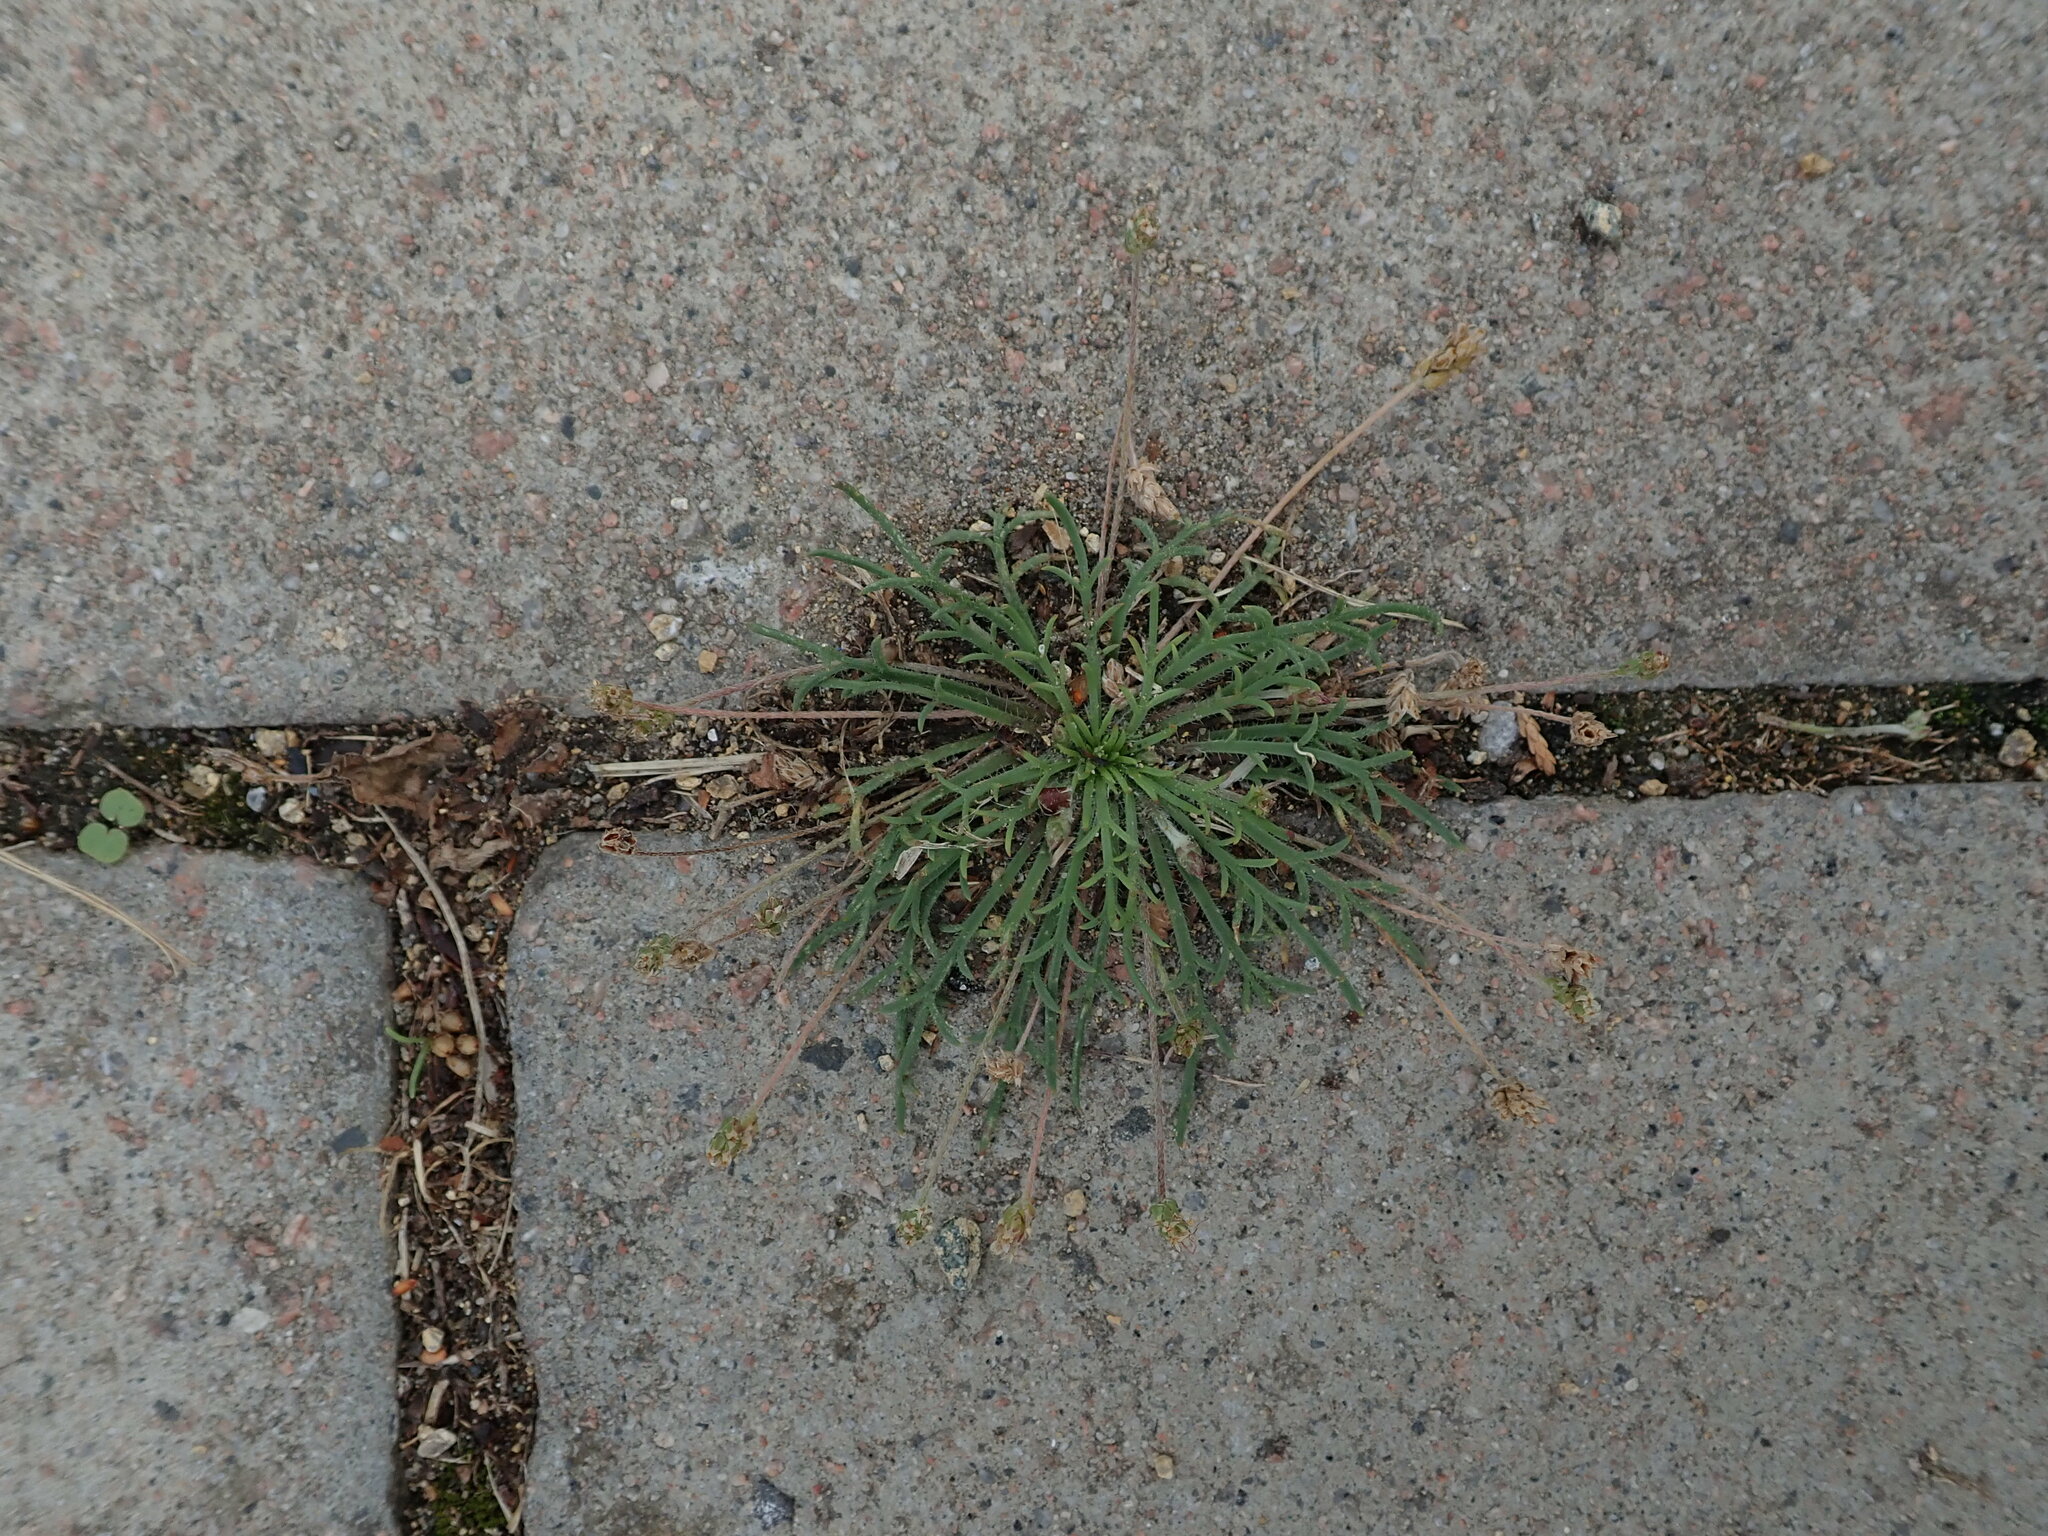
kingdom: Plantae
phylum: Tracheophyta
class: Magnoliopsida
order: Lamiales
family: Plantaginaceae
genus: Plantago
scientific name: Plantago coronopus
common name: Buck's-horn plantain
